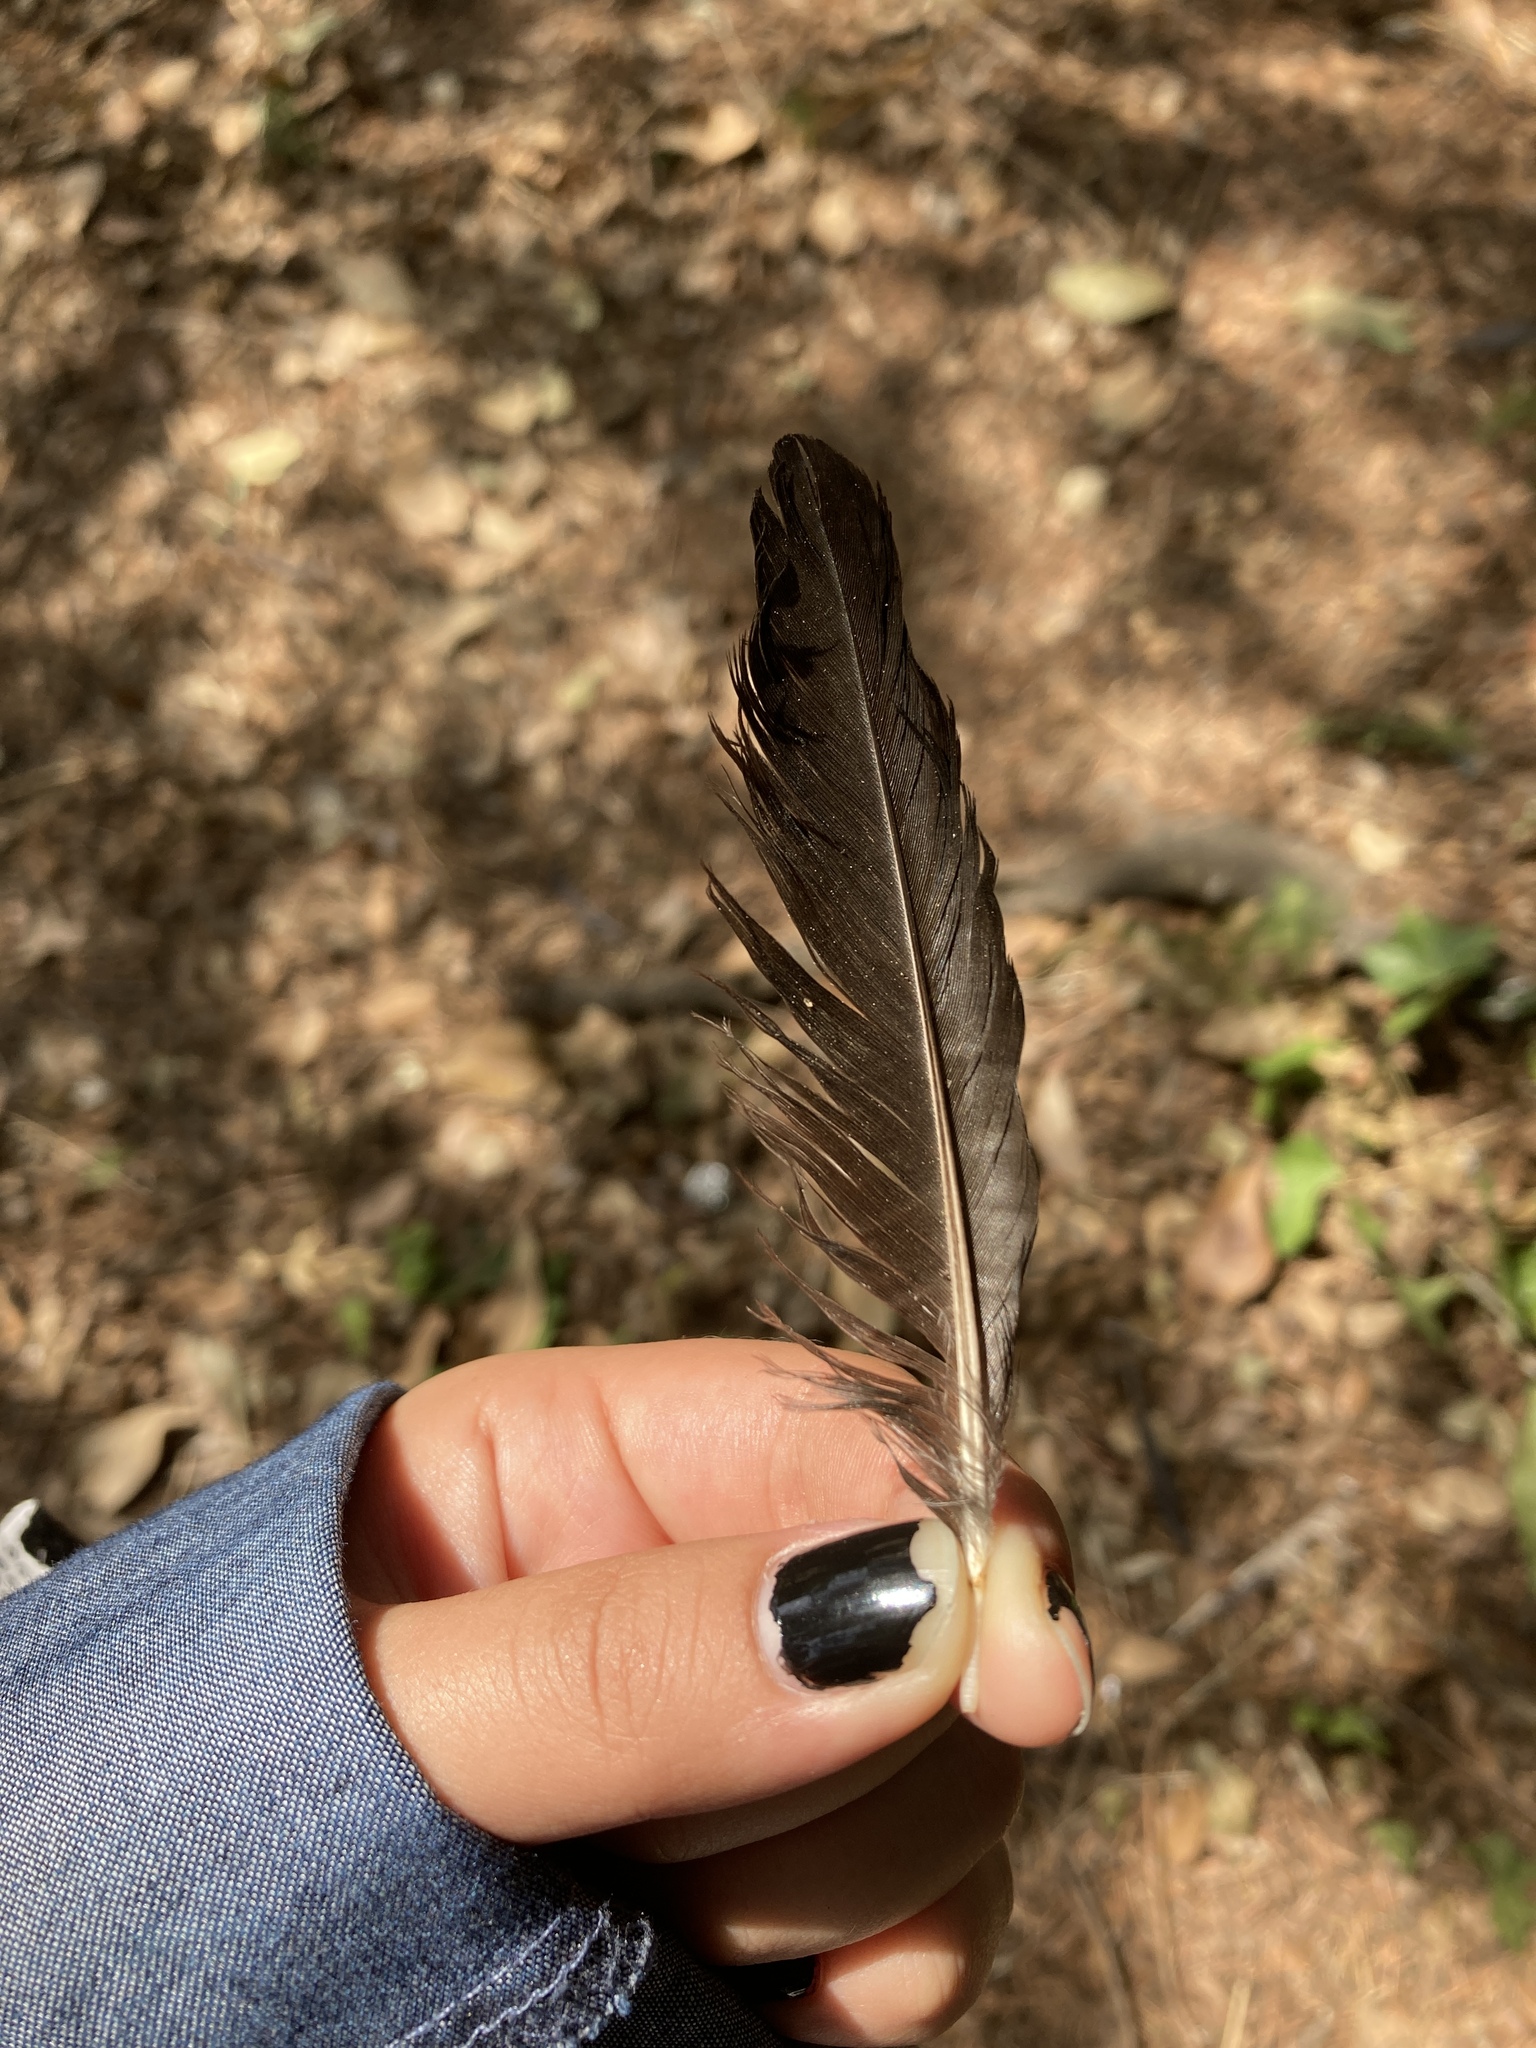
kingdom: Animalia
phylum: Chordata
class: Aves
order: Passeriformes
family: Corvidae
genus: Pica
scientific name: Pica pica
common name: Eurasian magpie
